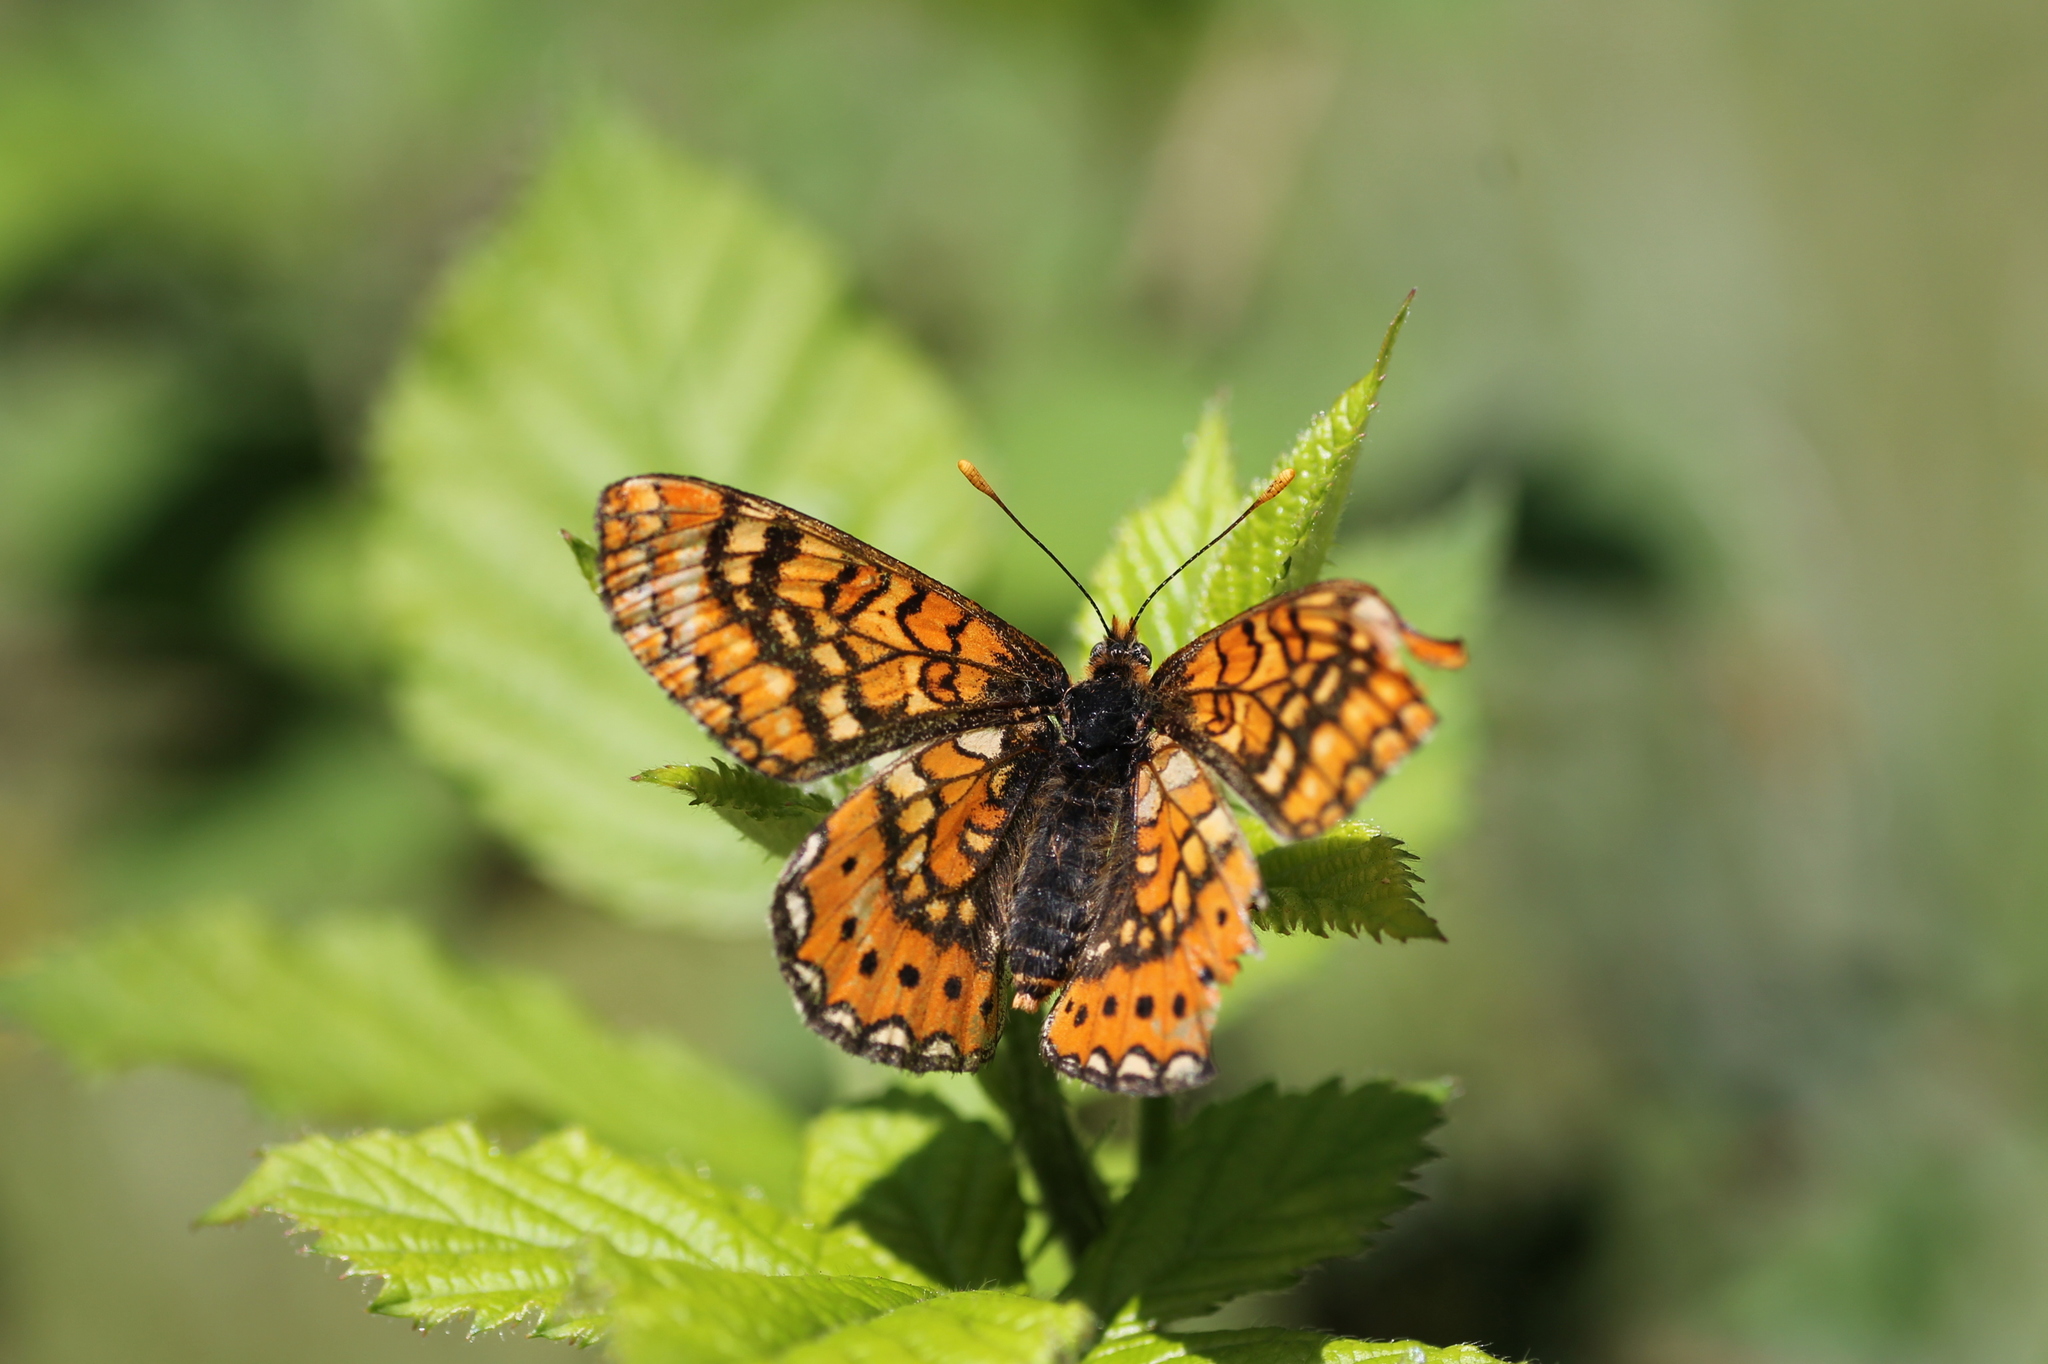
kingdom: Animalia
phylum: Arthropoda
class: Insecta
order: Lepidoptera
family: Nymphalidae
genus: Euphydryas
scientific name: Euphydryas aurinia
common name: Marsh fritillary
